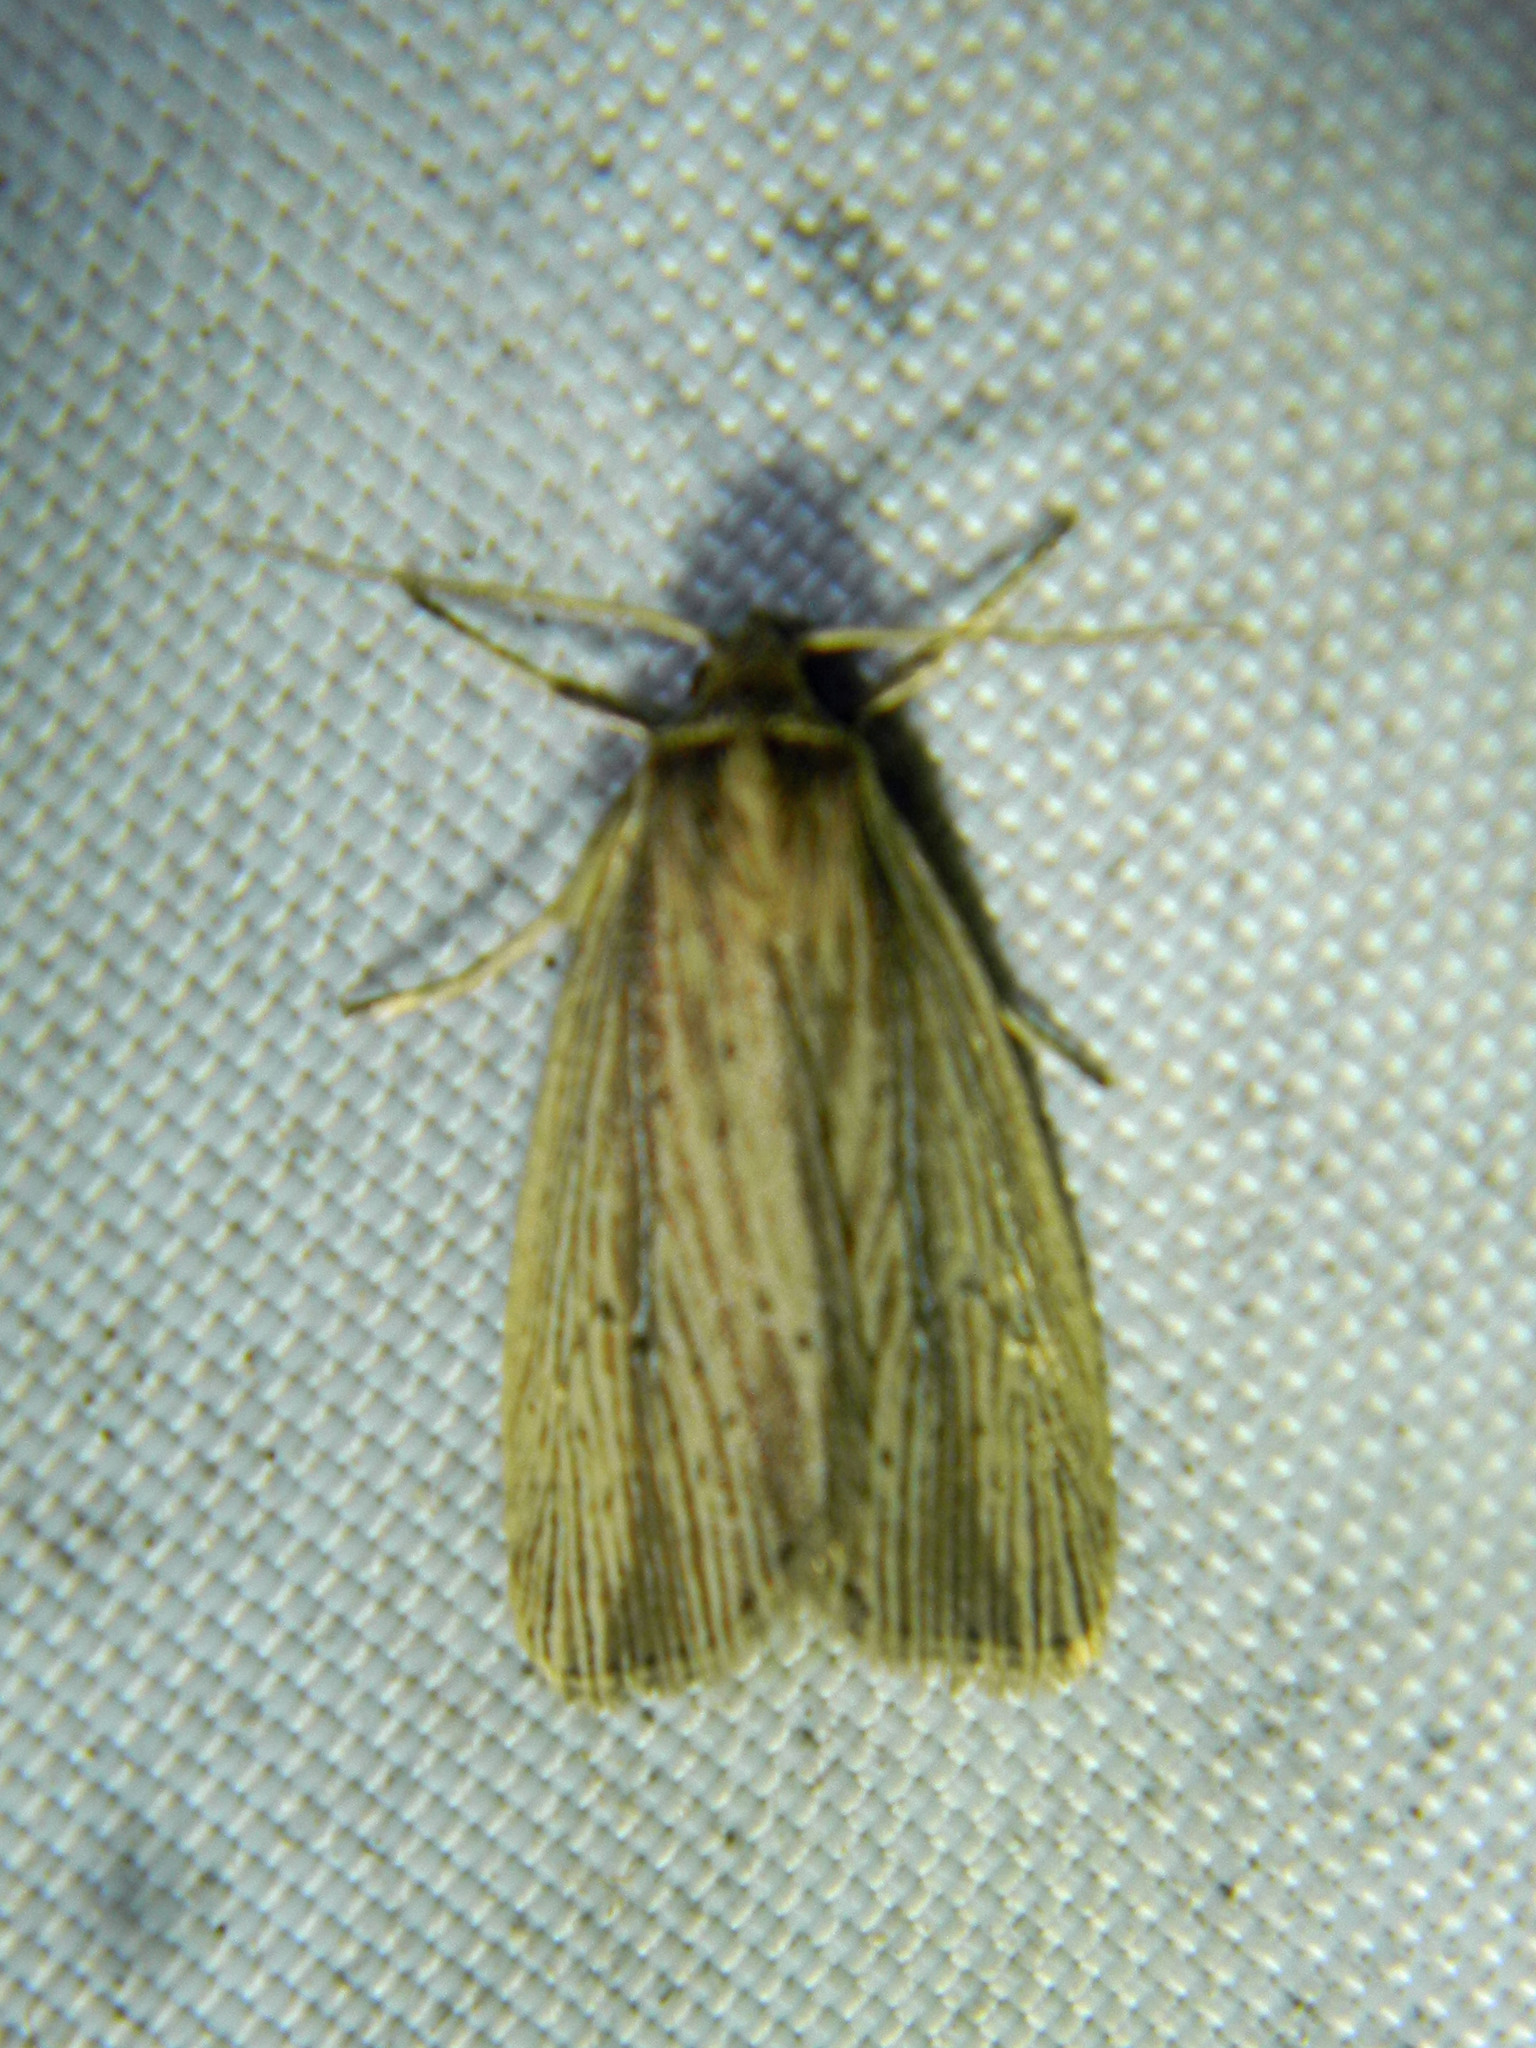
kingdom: Animalia
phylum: Arthropoda
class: Insecta
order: Lepidoptera
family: Noctuidae
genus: Photedes
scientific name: Photedes defecta
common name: Narrow-winged borer moth
